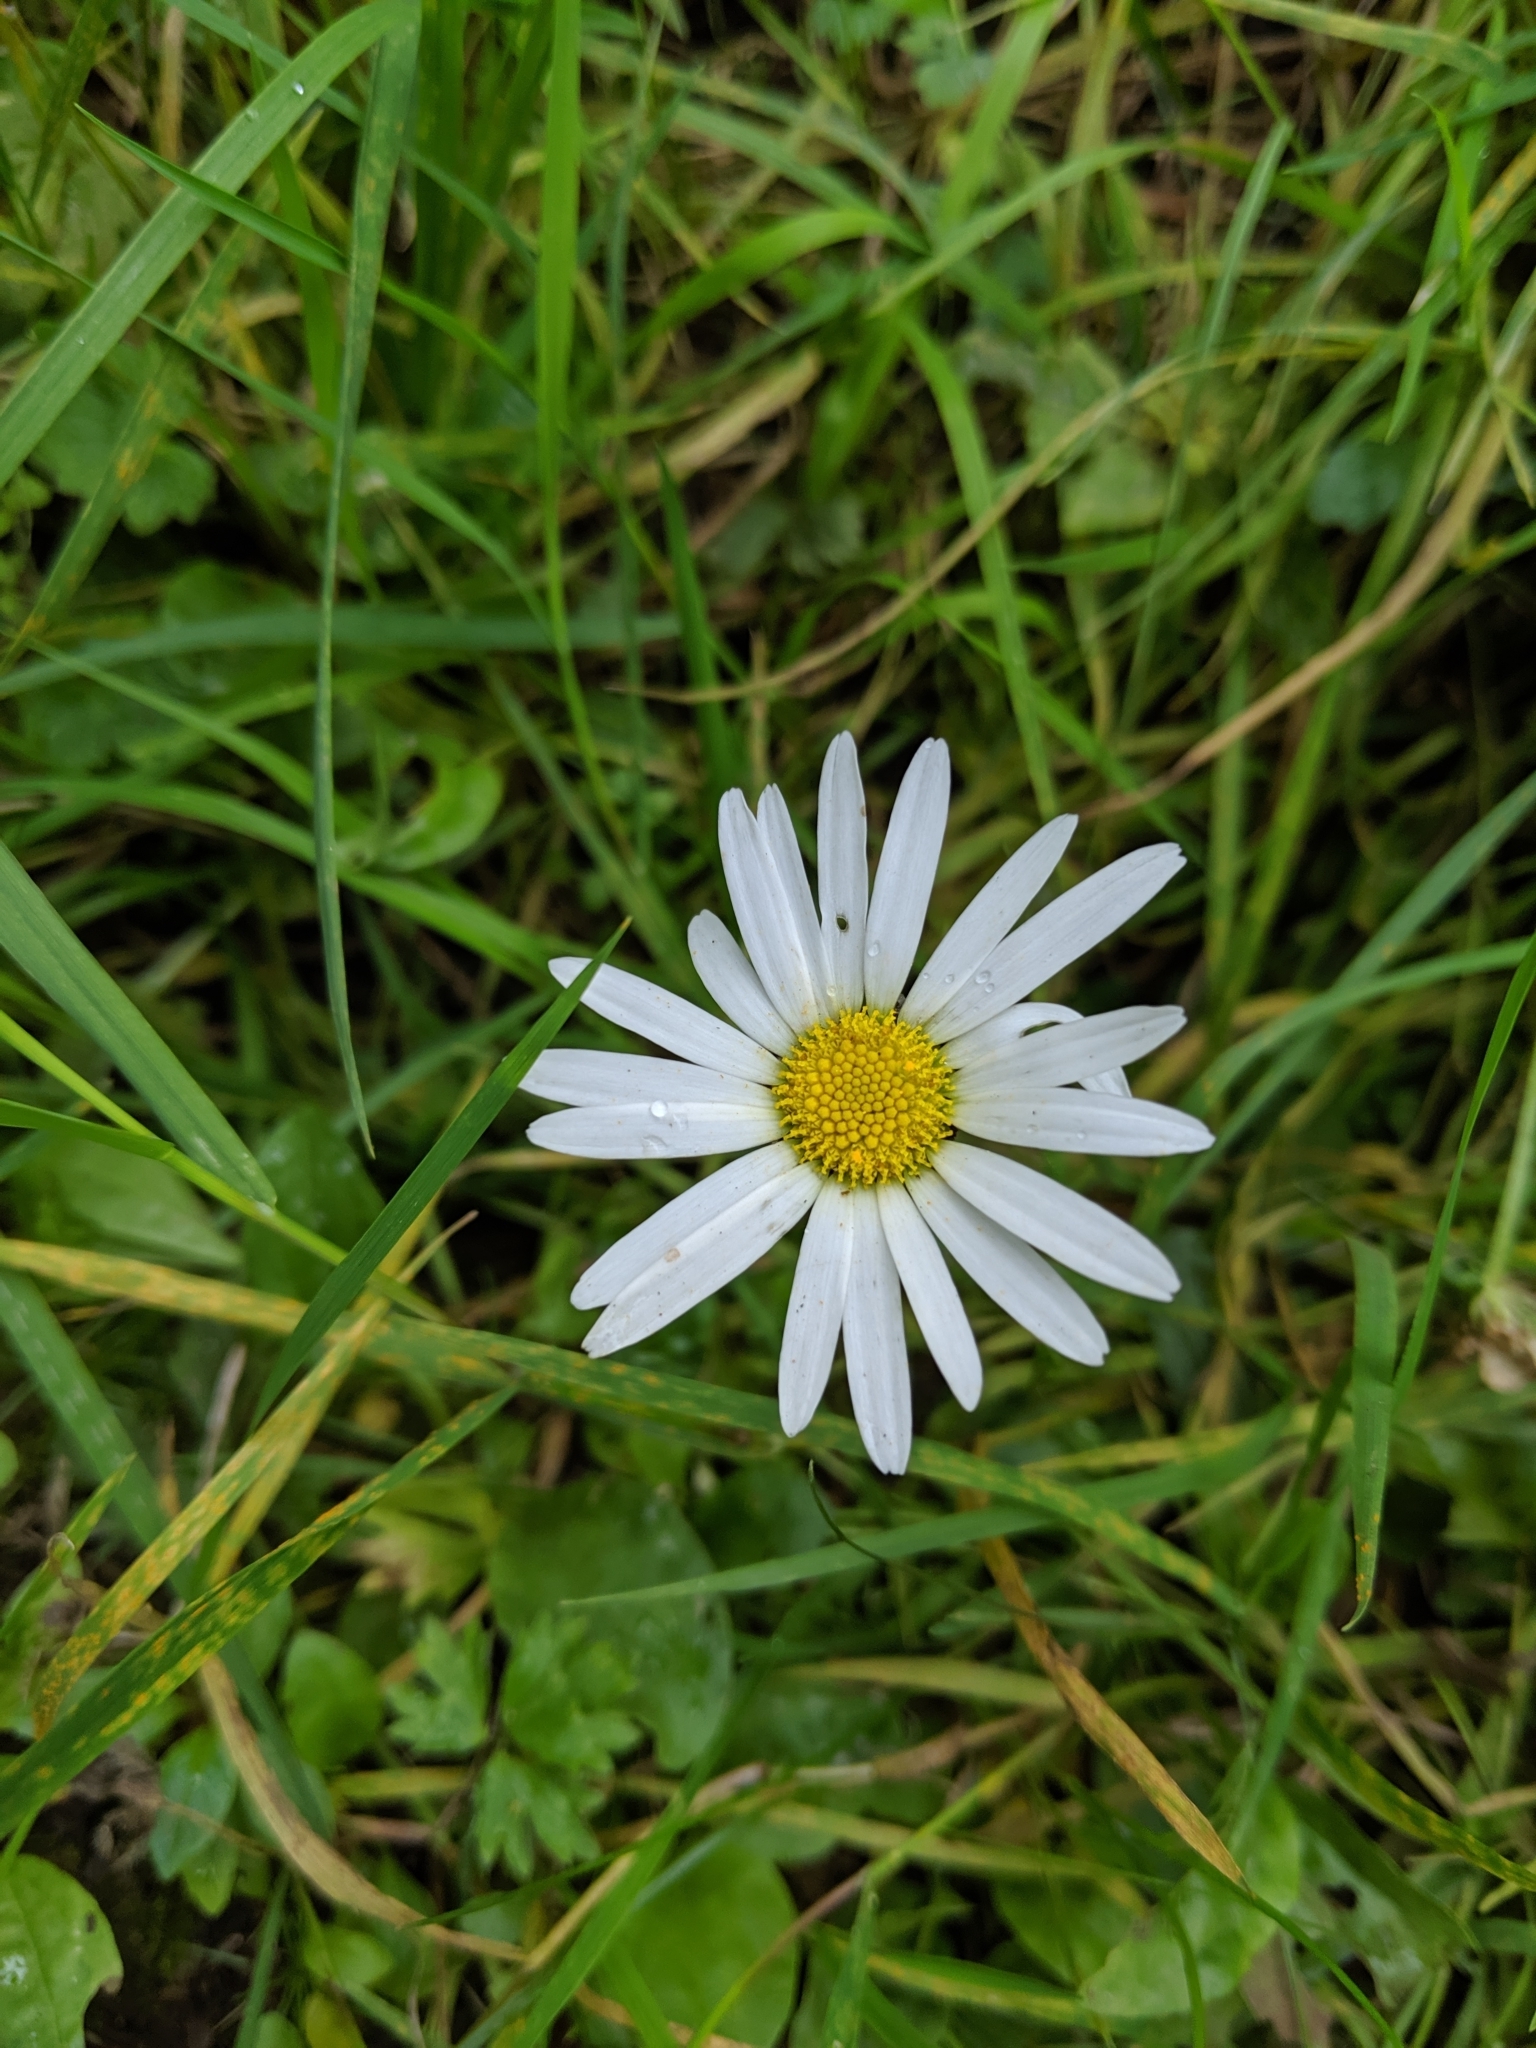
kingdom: Plantae
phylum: Tracheophyta
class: Magnoliopsida
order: Asterales
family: Asteraceae
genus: Bellis
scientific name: Bellis perennis
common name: Lawndaisy
